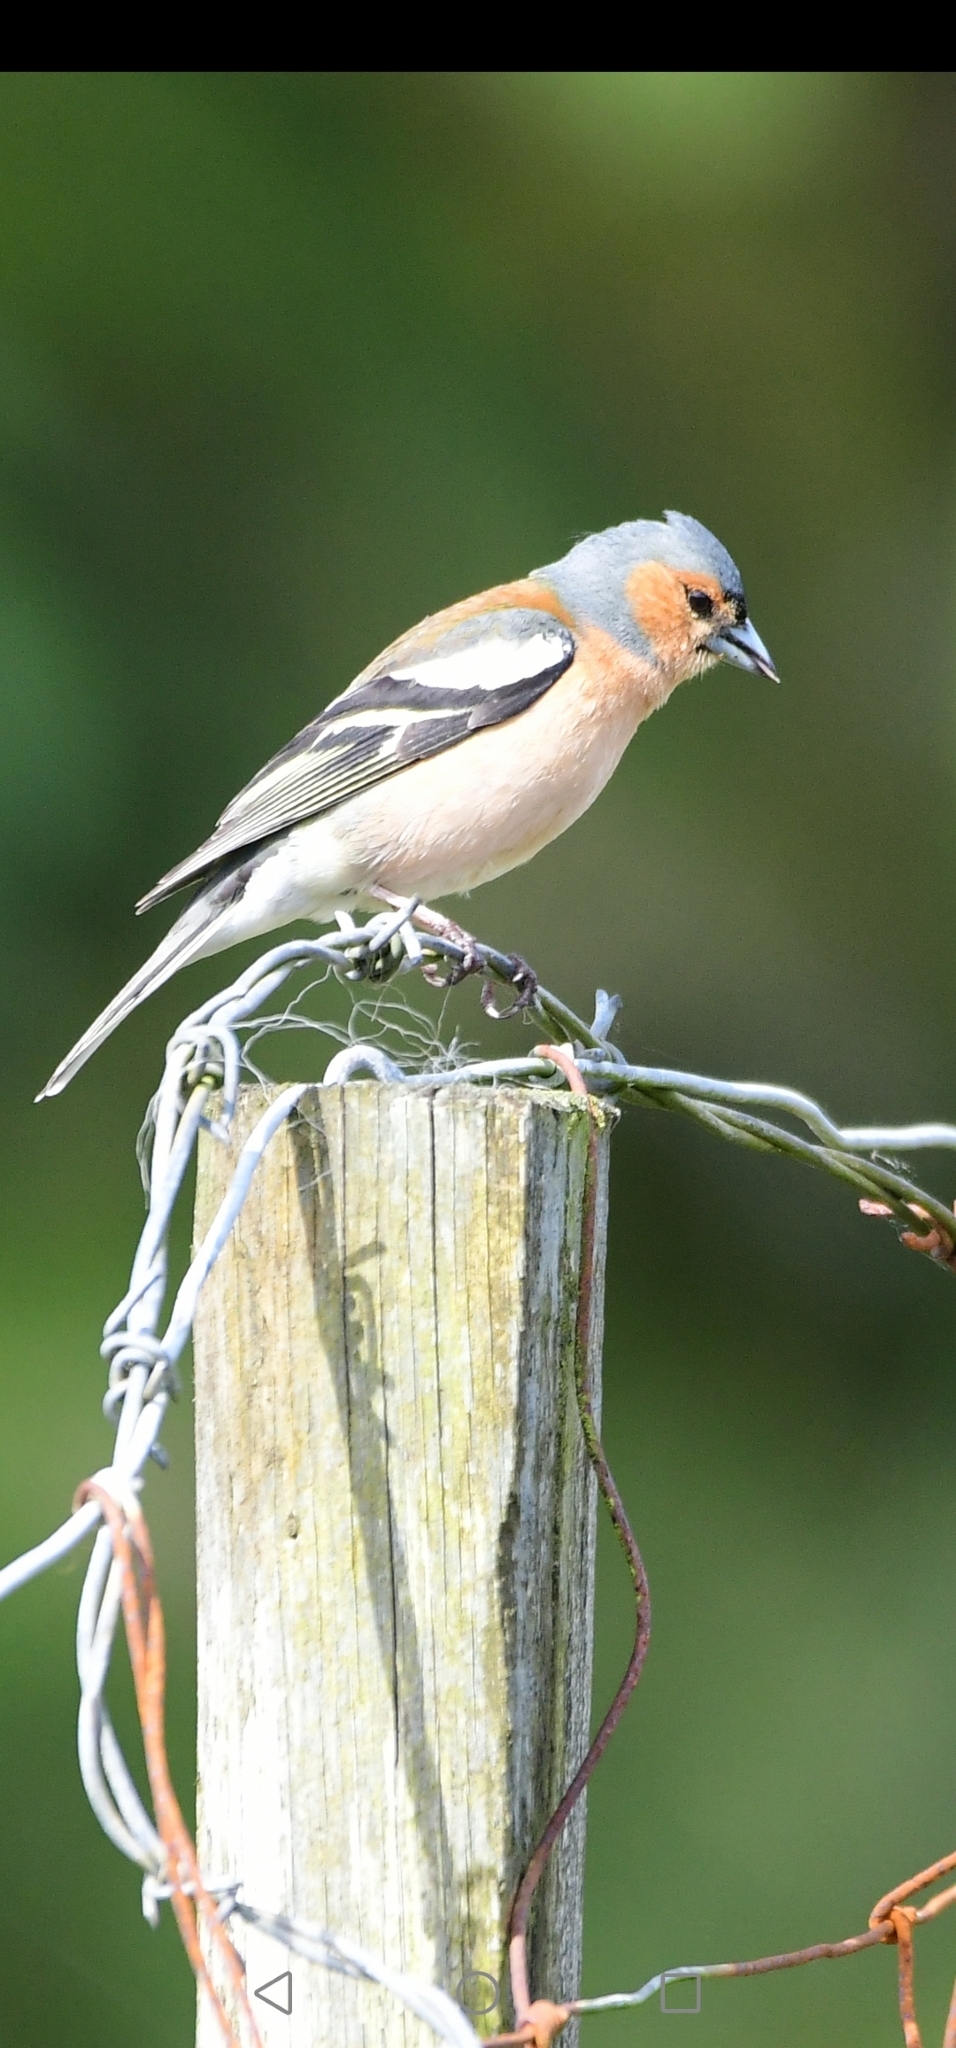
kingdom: Animalia
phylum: Chordata
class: Aves
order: Passeriformes
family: Fringillidae
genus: Fringilla
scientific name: Fringilla coelebs
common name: Common chaffinch
